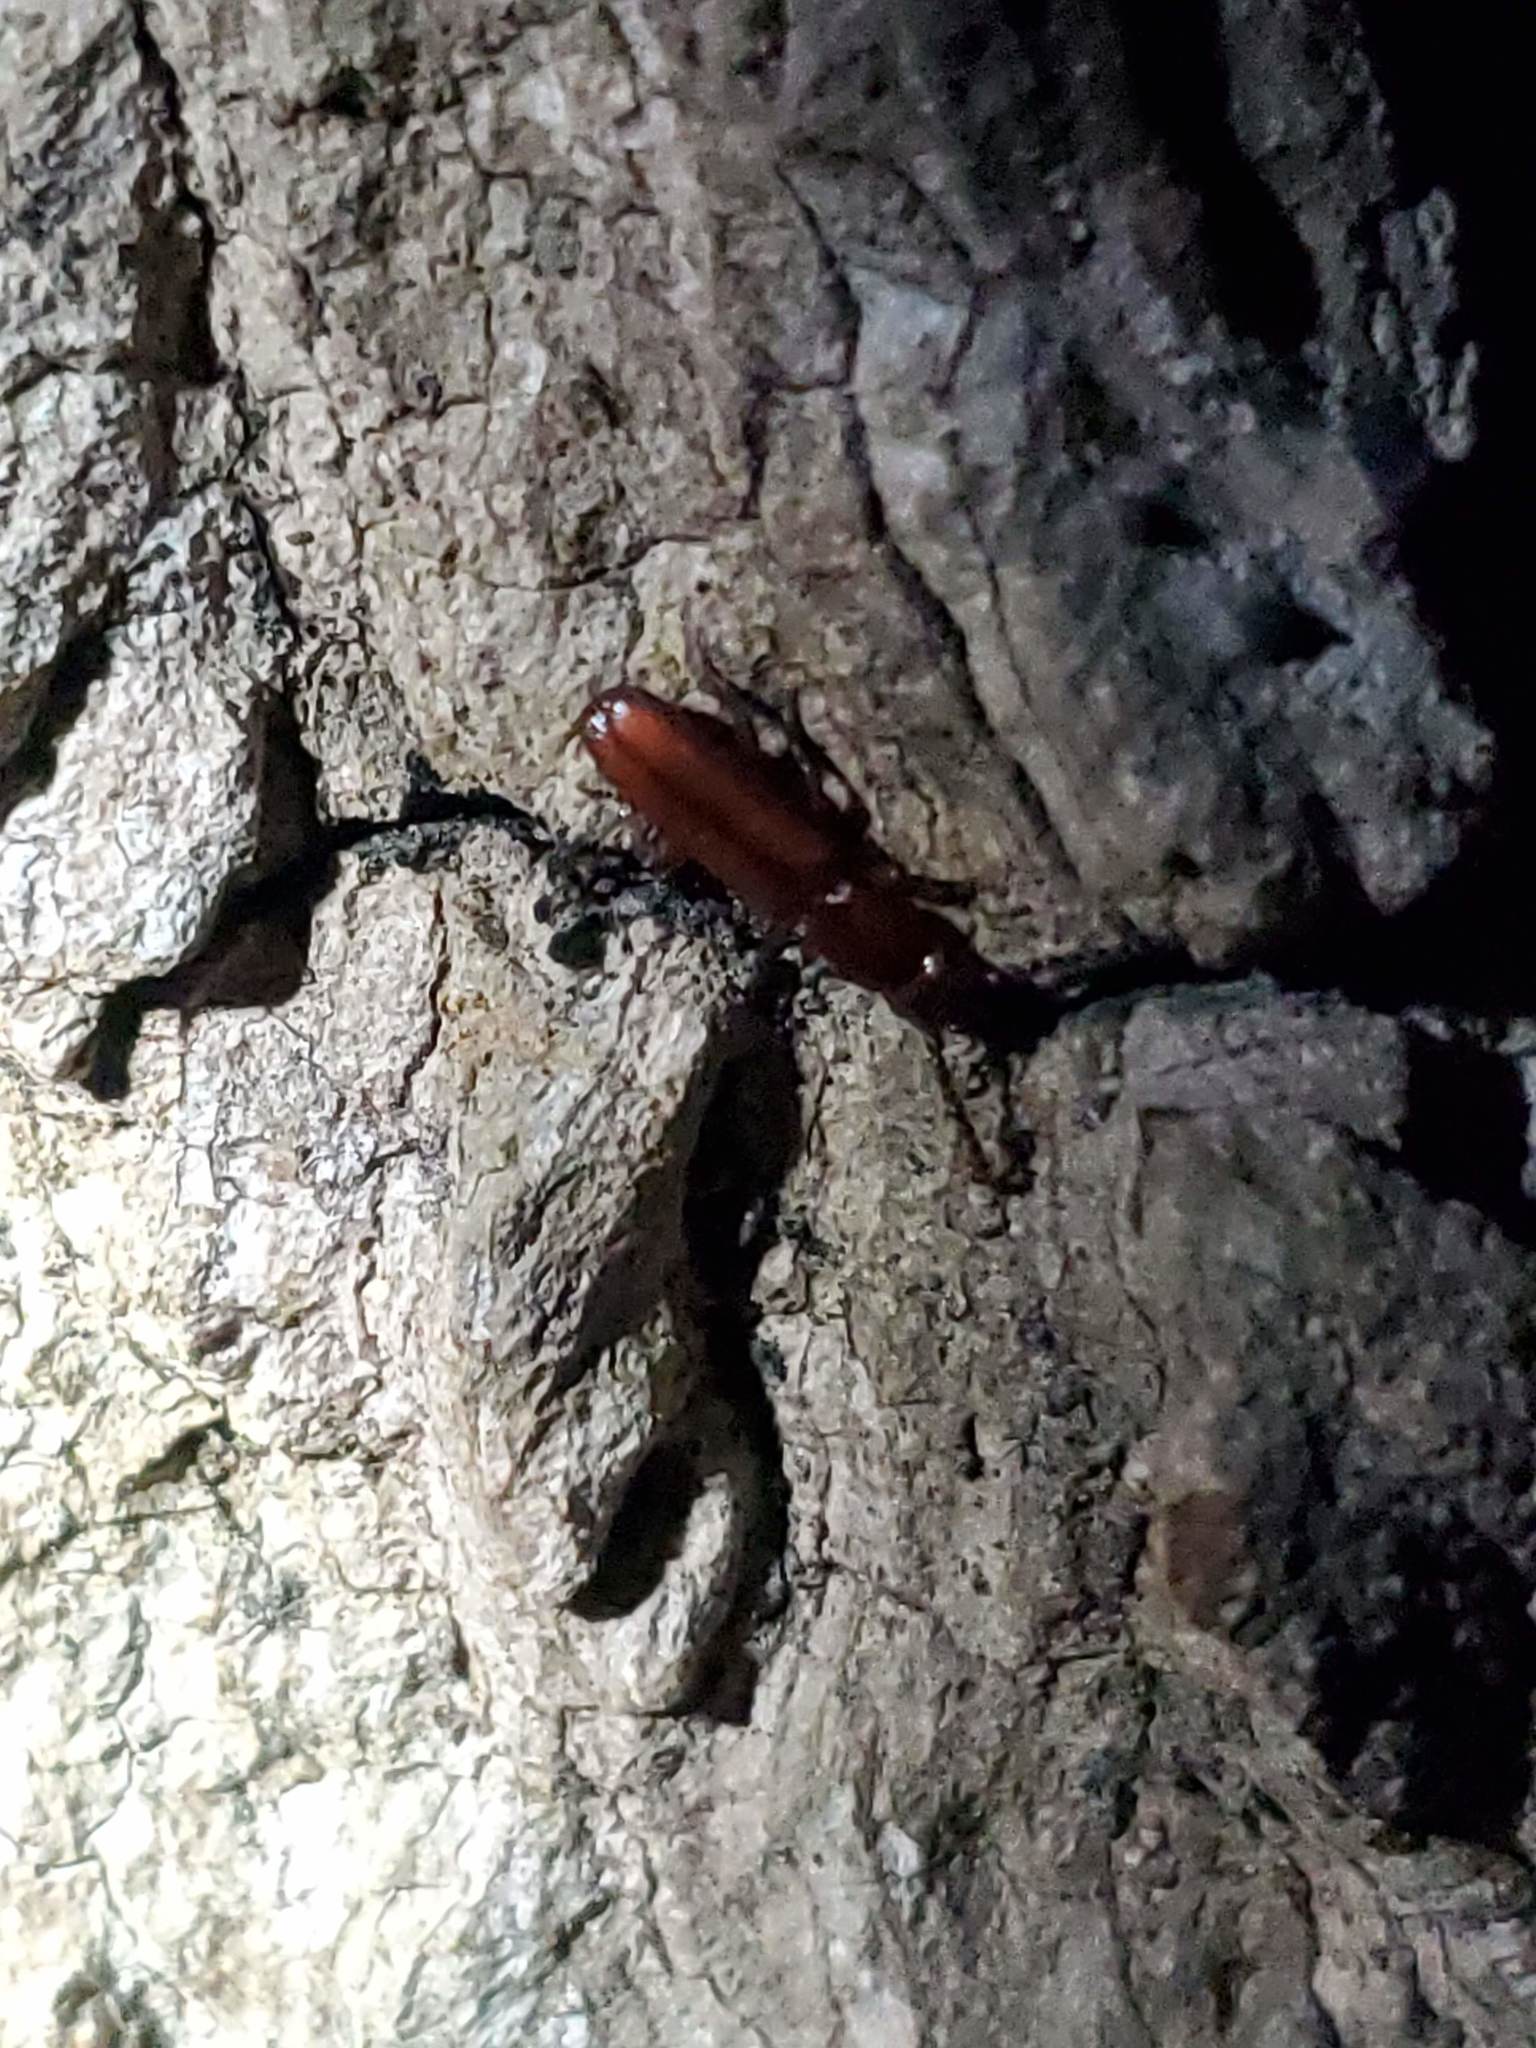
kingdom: Animalia
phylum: Arthropoda
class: Insecta
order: Coleoptera
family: Passandridae
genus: Catogenus
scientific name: Catogenus rufus
